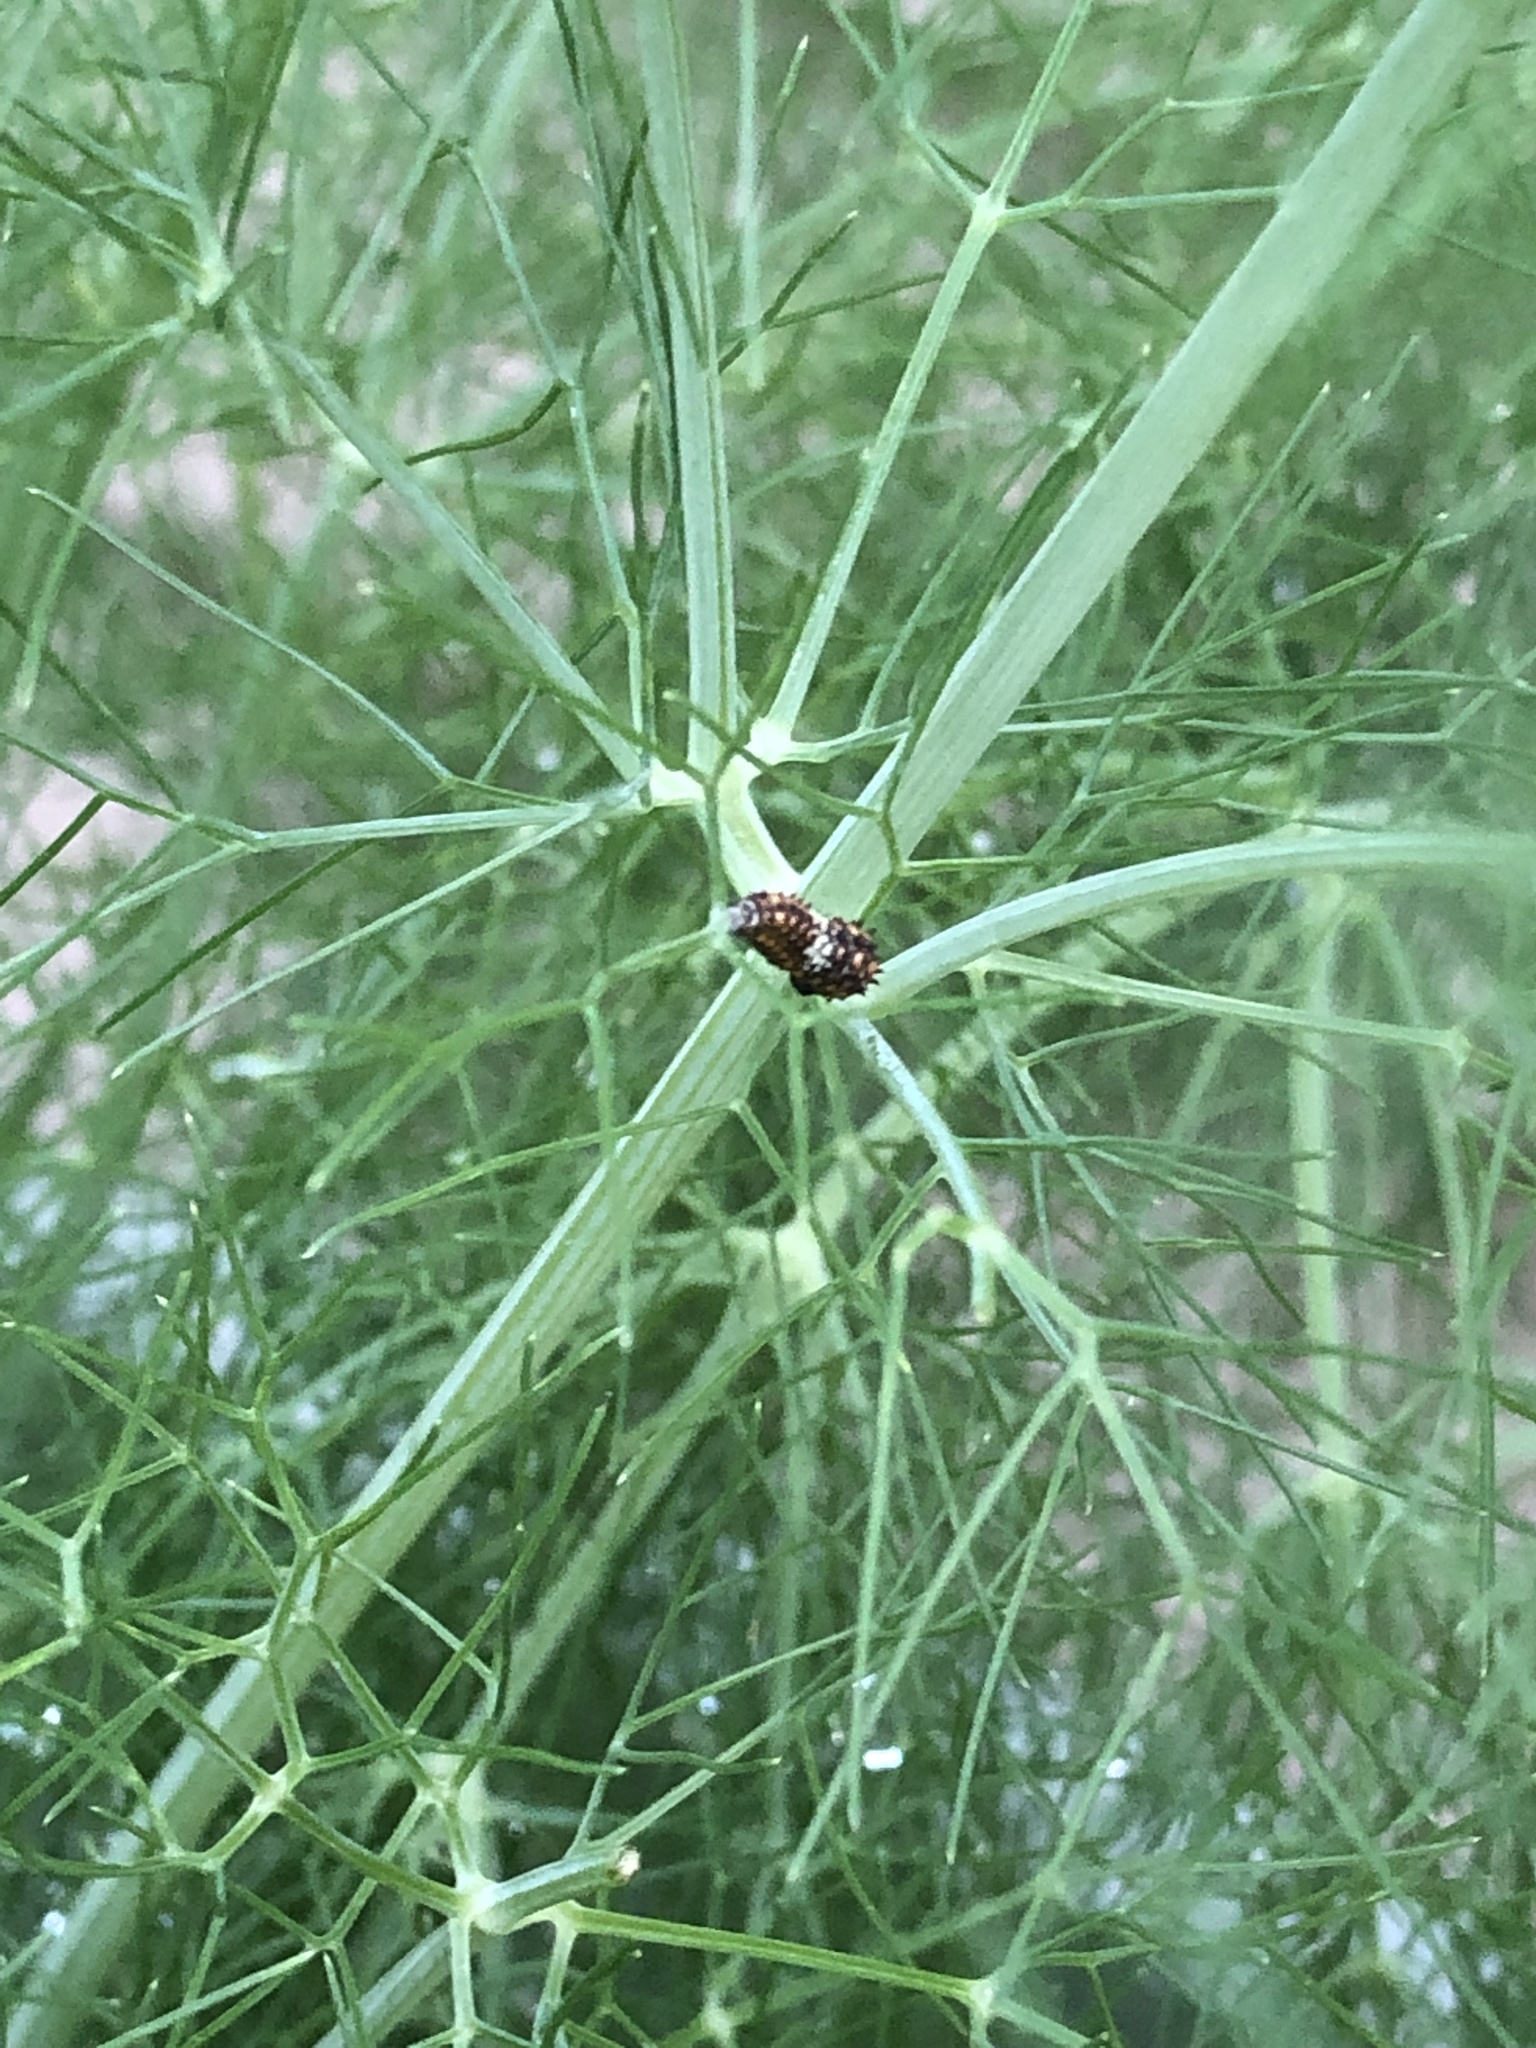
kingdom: Animalia
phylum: Arthropoda
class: Insecta
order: Lepidoptera
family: Papilionidae
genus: Papilio
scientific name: Papilio polyxenes
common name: Black swallowtail
